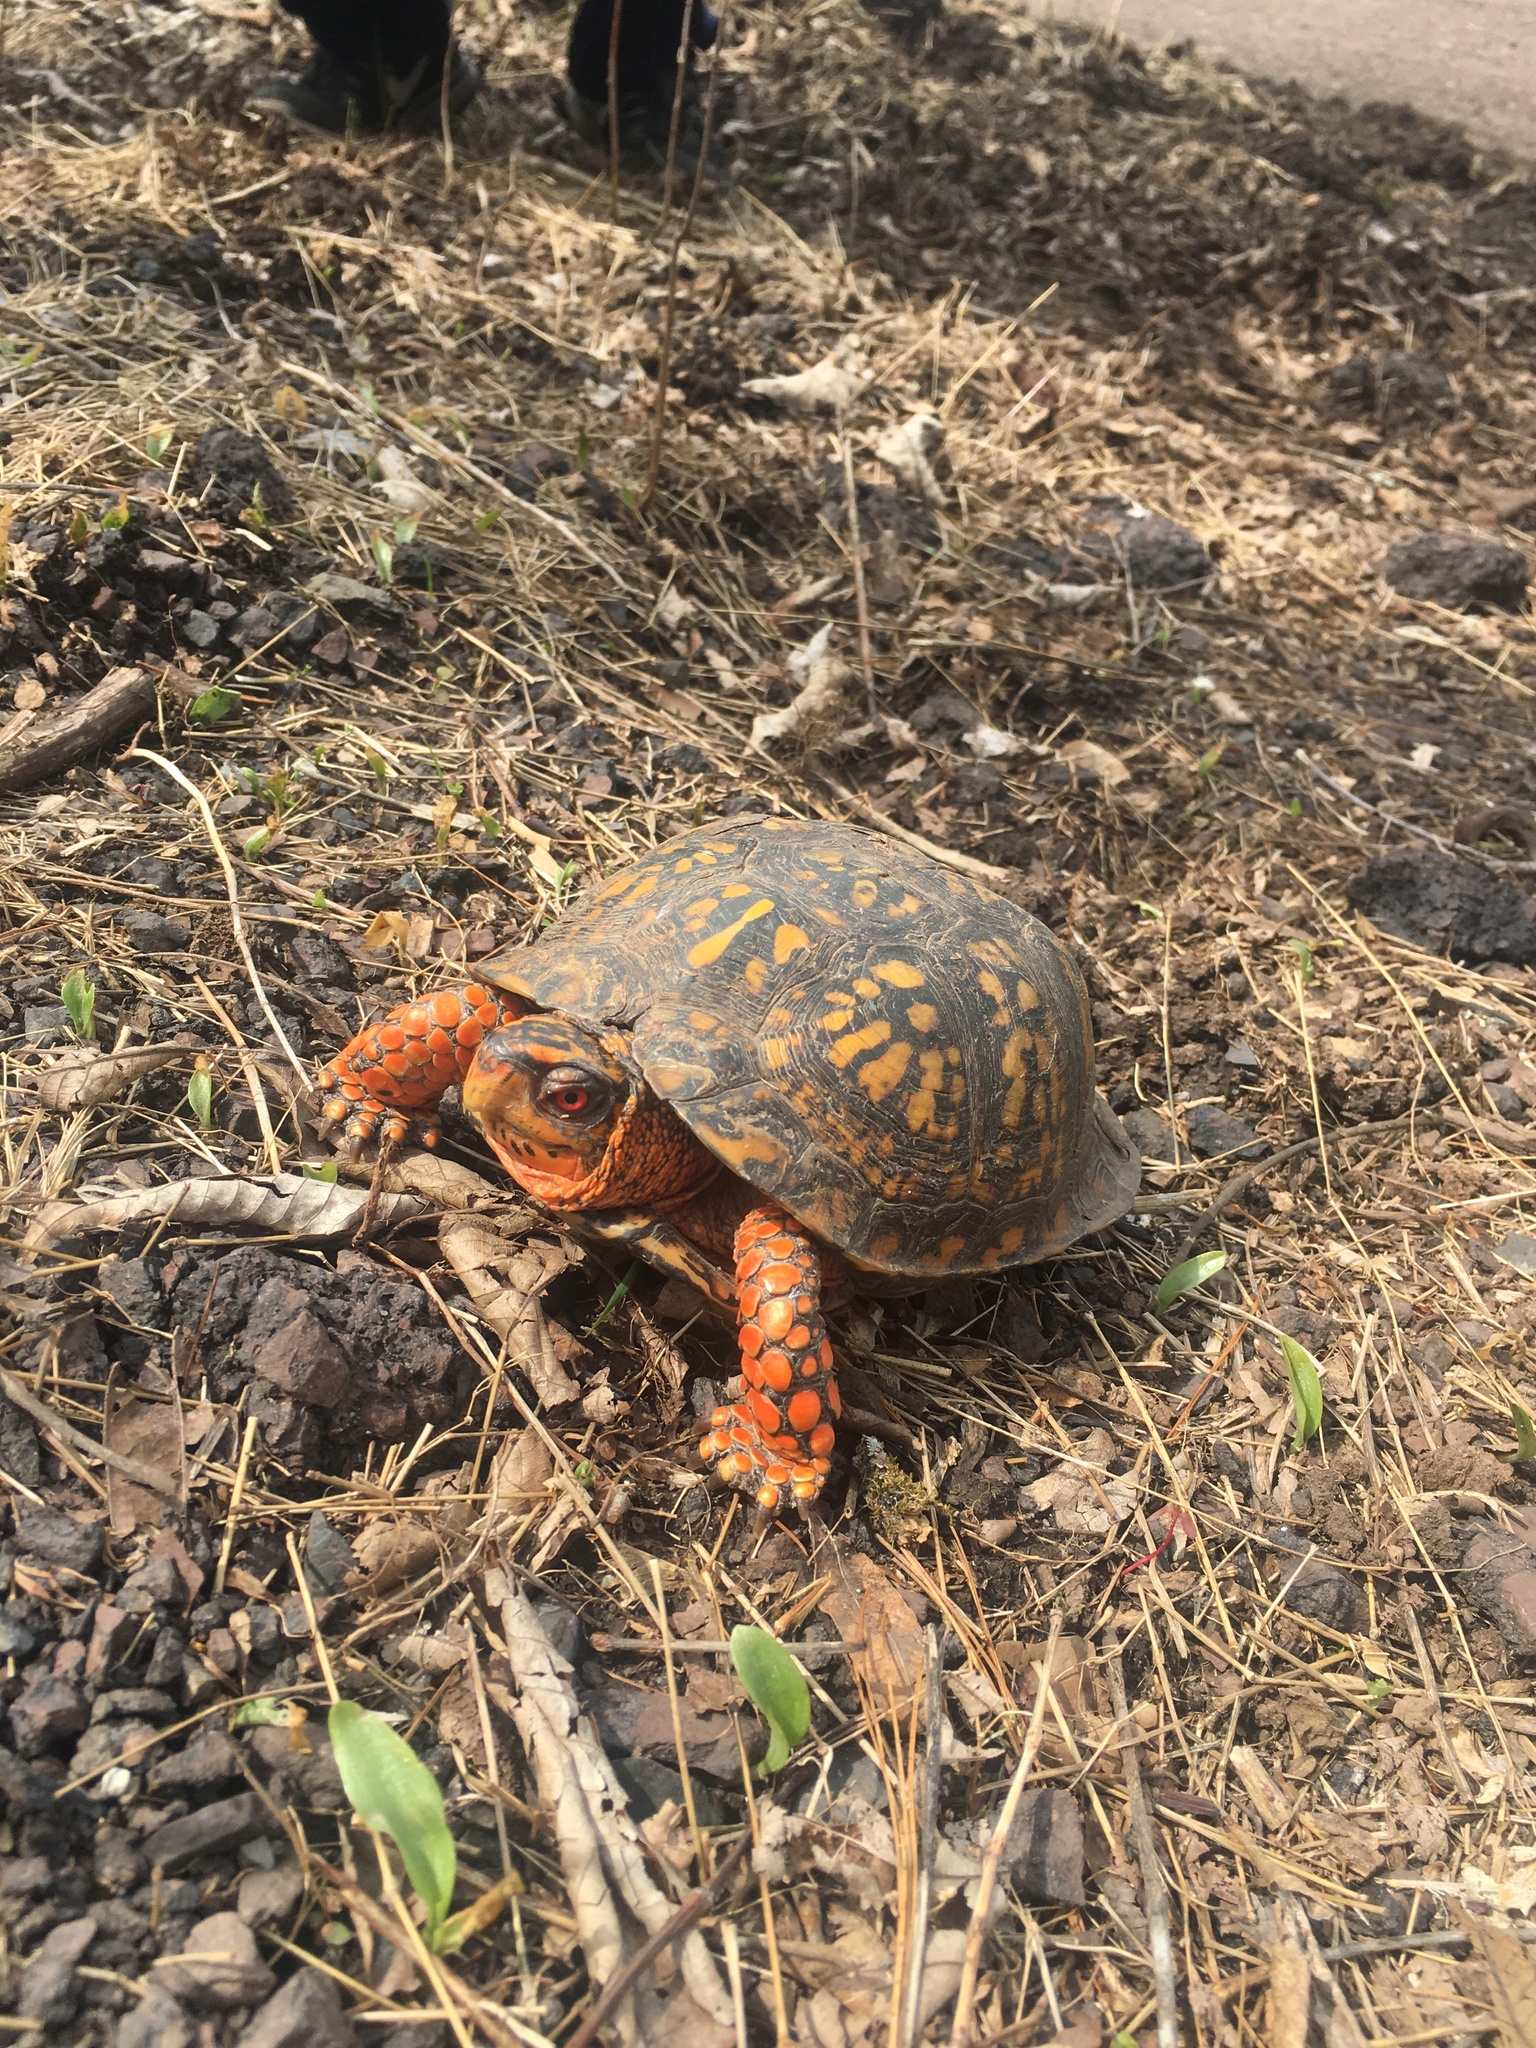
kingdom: Animalia
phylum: Chordata
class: Testudines
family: Emydidae
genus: Terrapene
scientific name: Terrapene carolina
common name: Common box turtle
